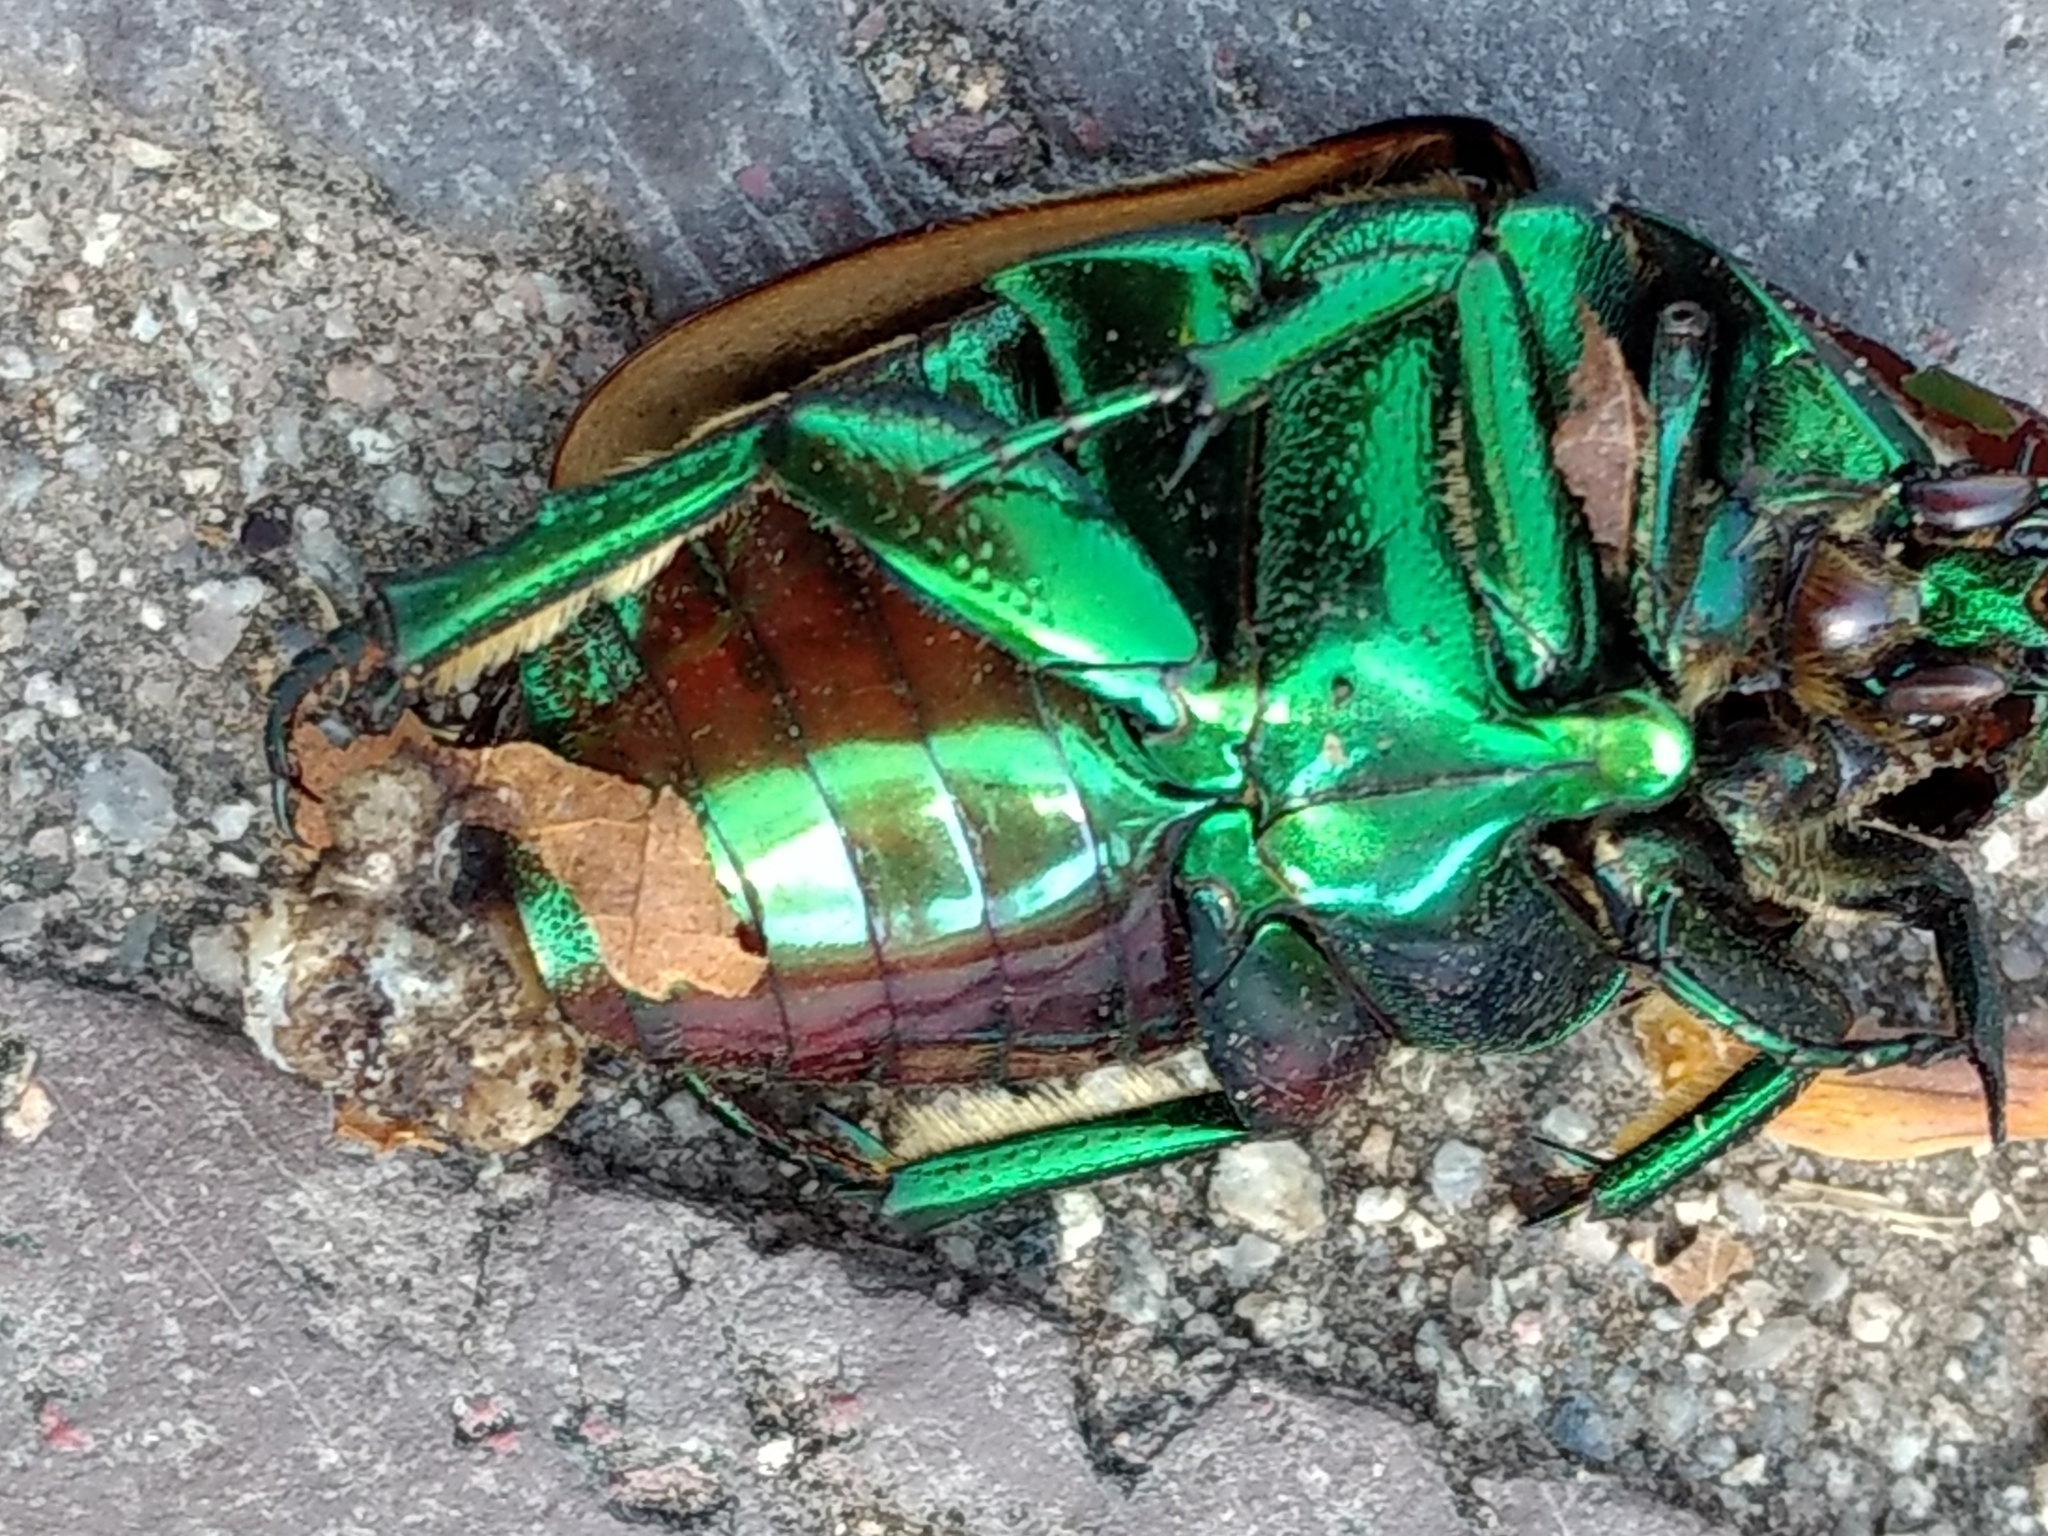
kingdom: Animalia
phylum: Arthropoda
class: Insecta
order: Coleoptera
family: Scarabaeidae
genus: Cotinis
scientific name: Cotinis mutabilis
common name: Figeater beetle
